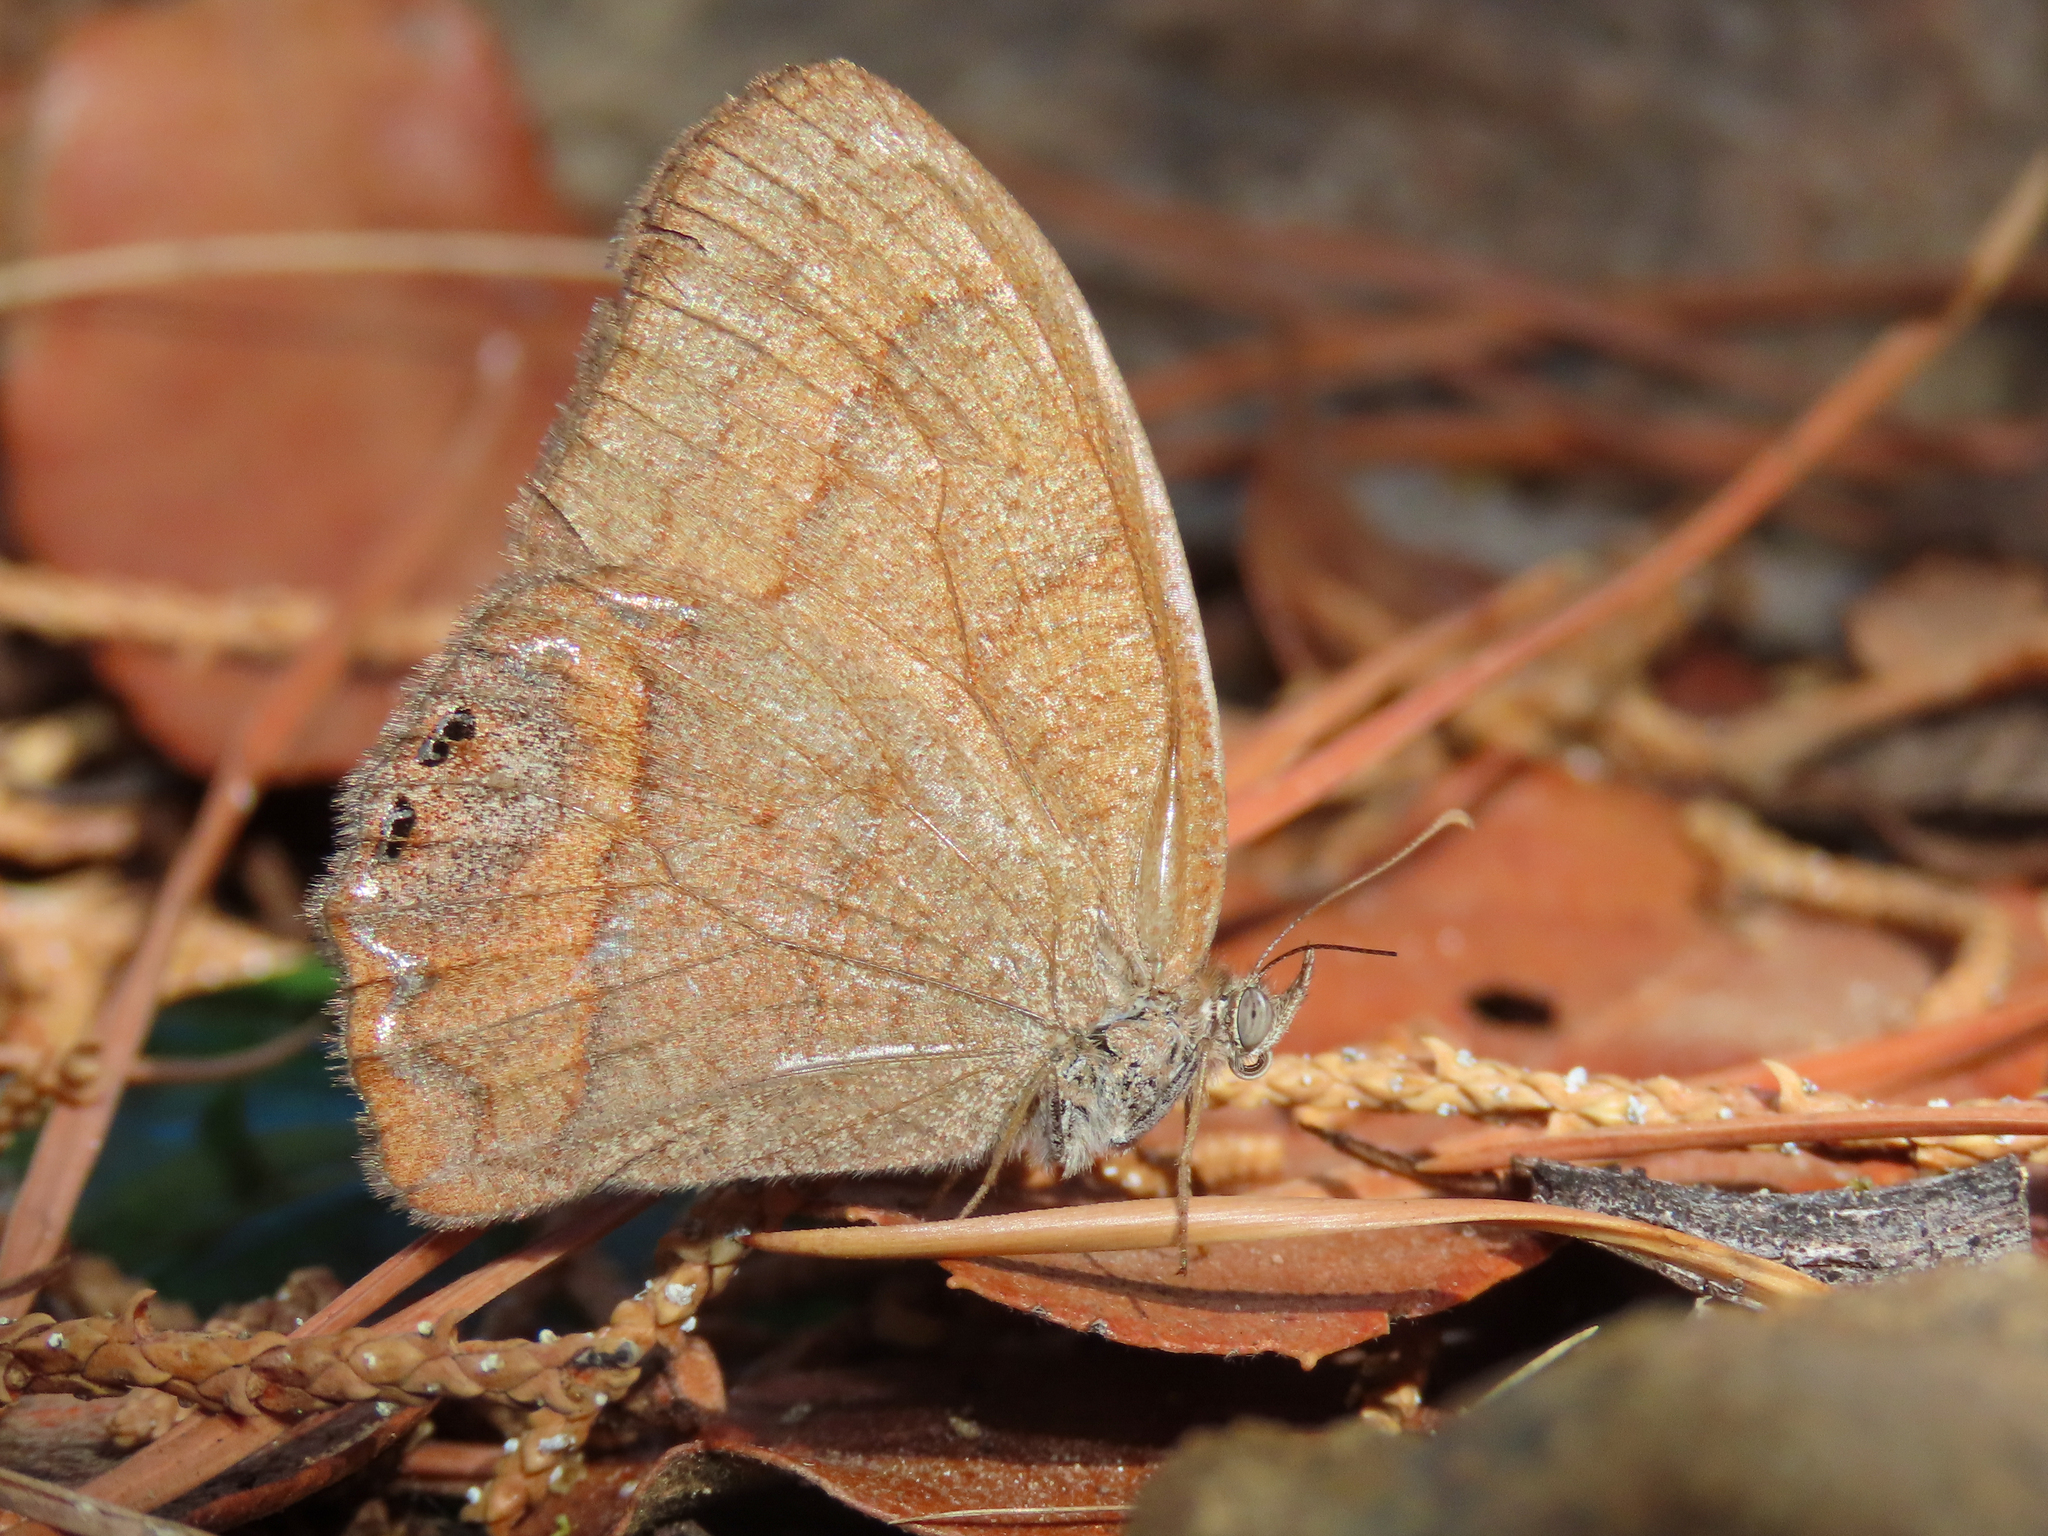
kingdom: Animalia
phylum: Arthropoda
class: Insecta
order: Lepidoptera
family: Nymphalidae
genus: Euptychia
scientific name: Euptychia pyracmon
